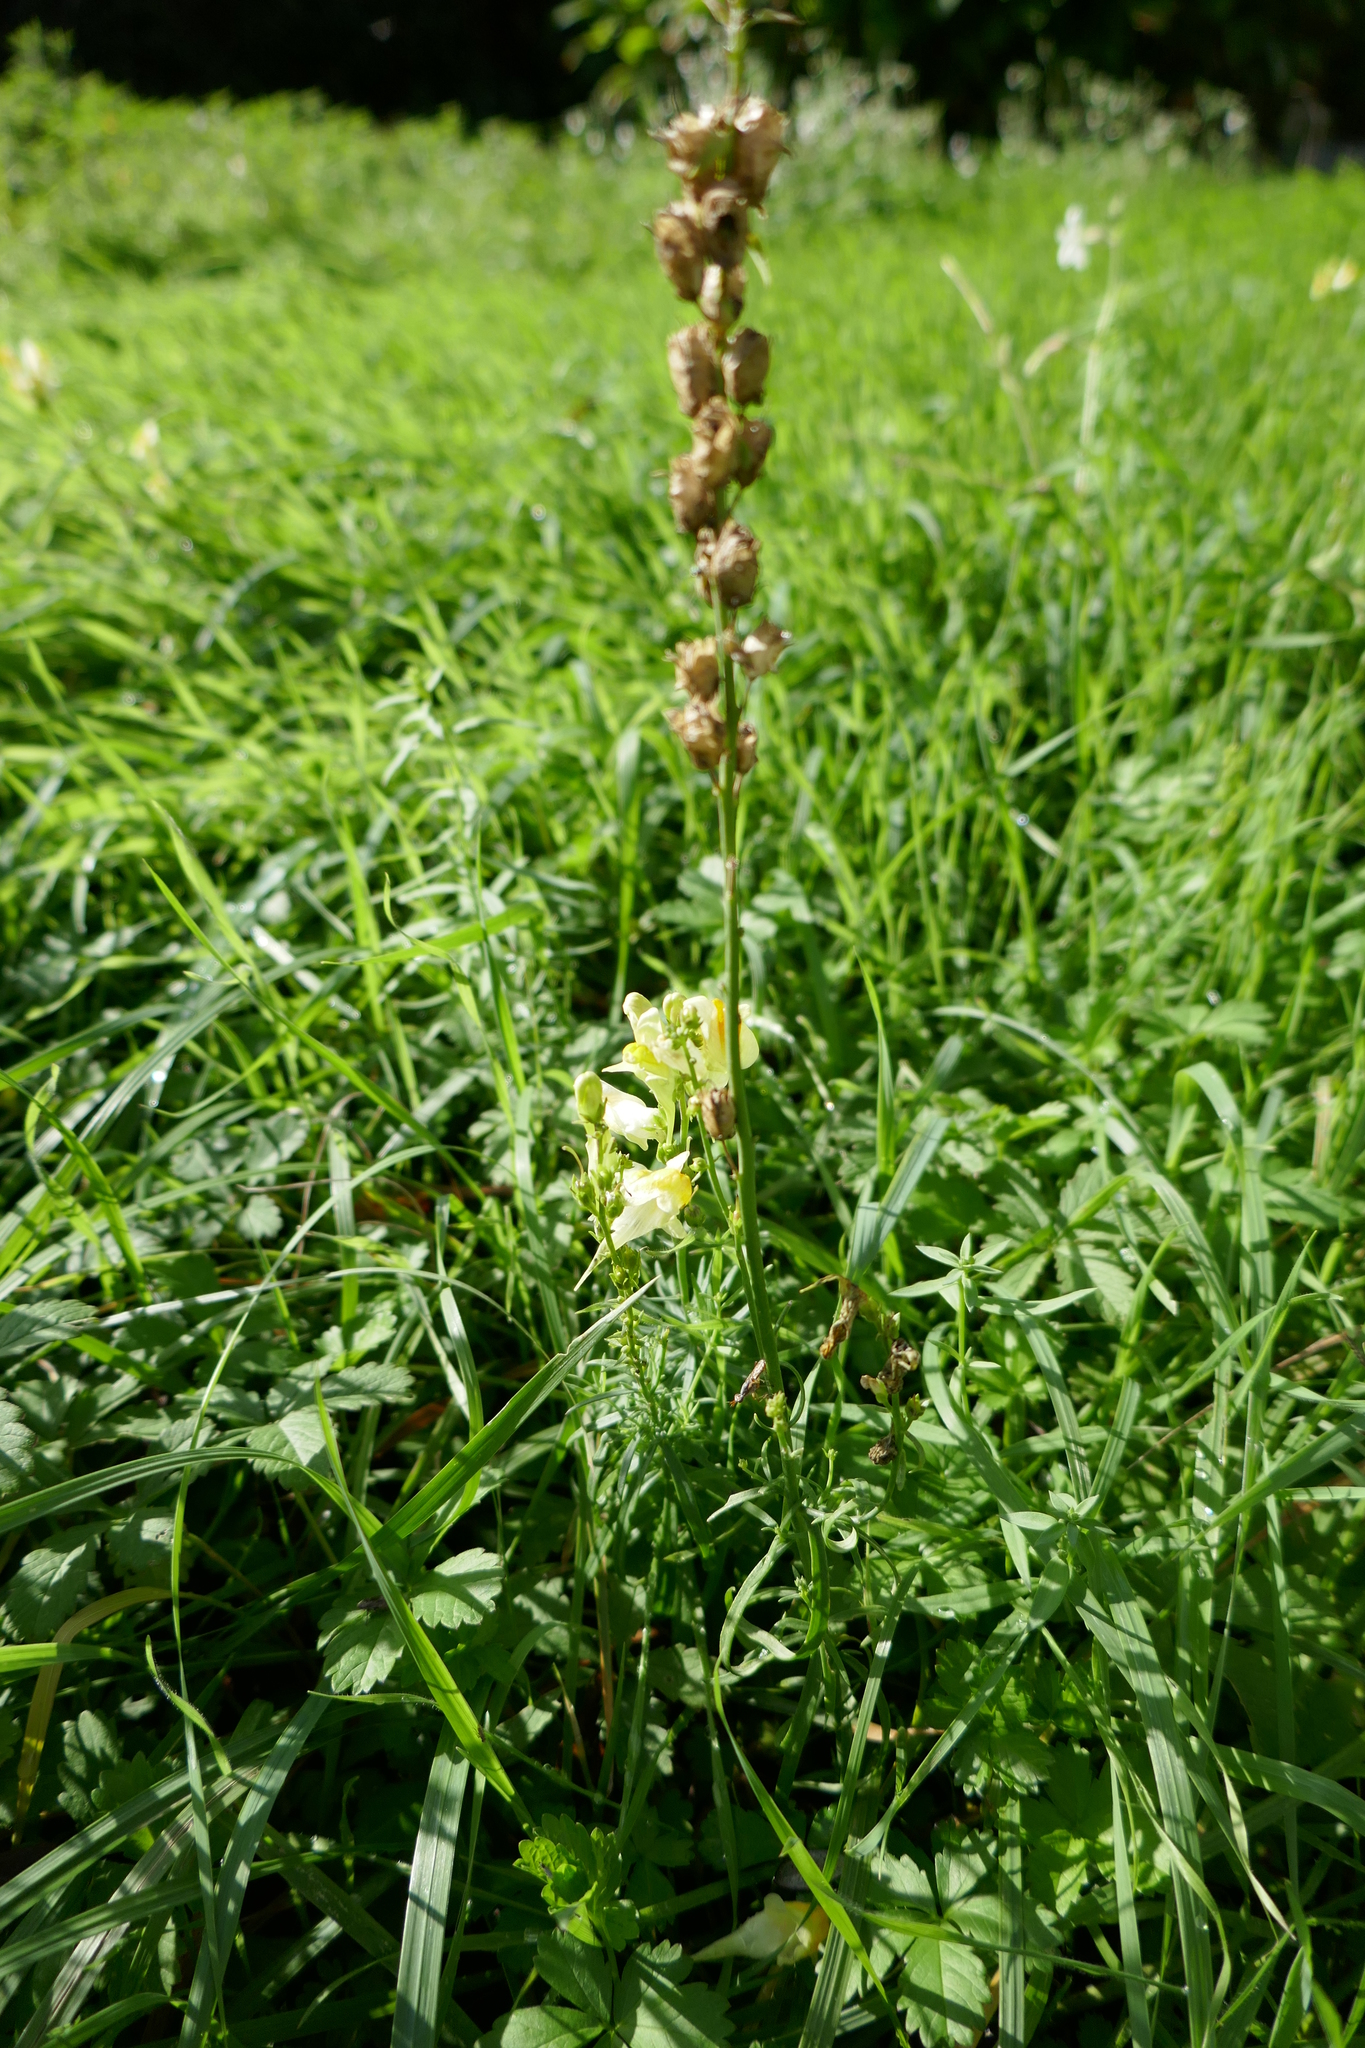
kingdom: Plantae
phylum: Tracheophyta
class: Magnoliopsida
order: Lamiales
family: Plantaginaceae
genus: Linaria
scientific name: Linaria vulgaris
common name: Butter and eggs
